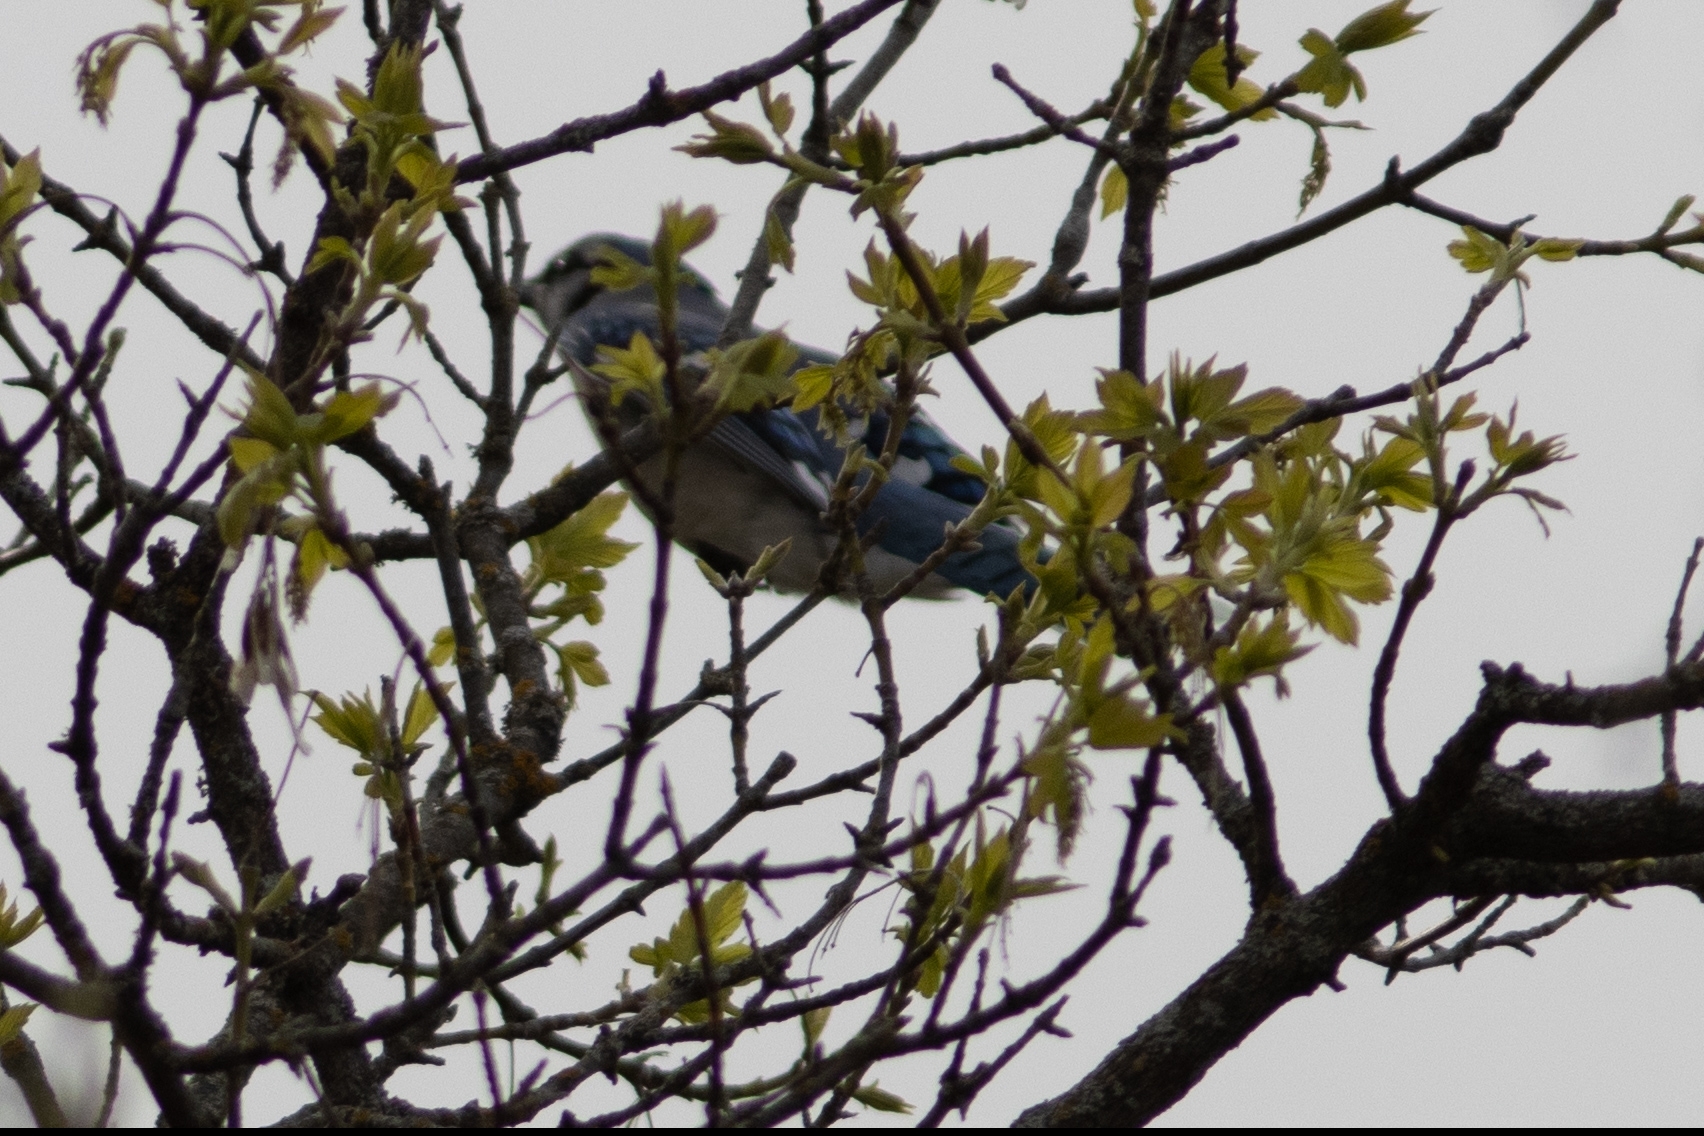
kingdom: Animalia
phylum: Chordata
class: Aves
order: Passeriformes
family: Corvidae
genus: Cyanocitta
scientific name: Cyanocitta cristata
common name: Blue jay
